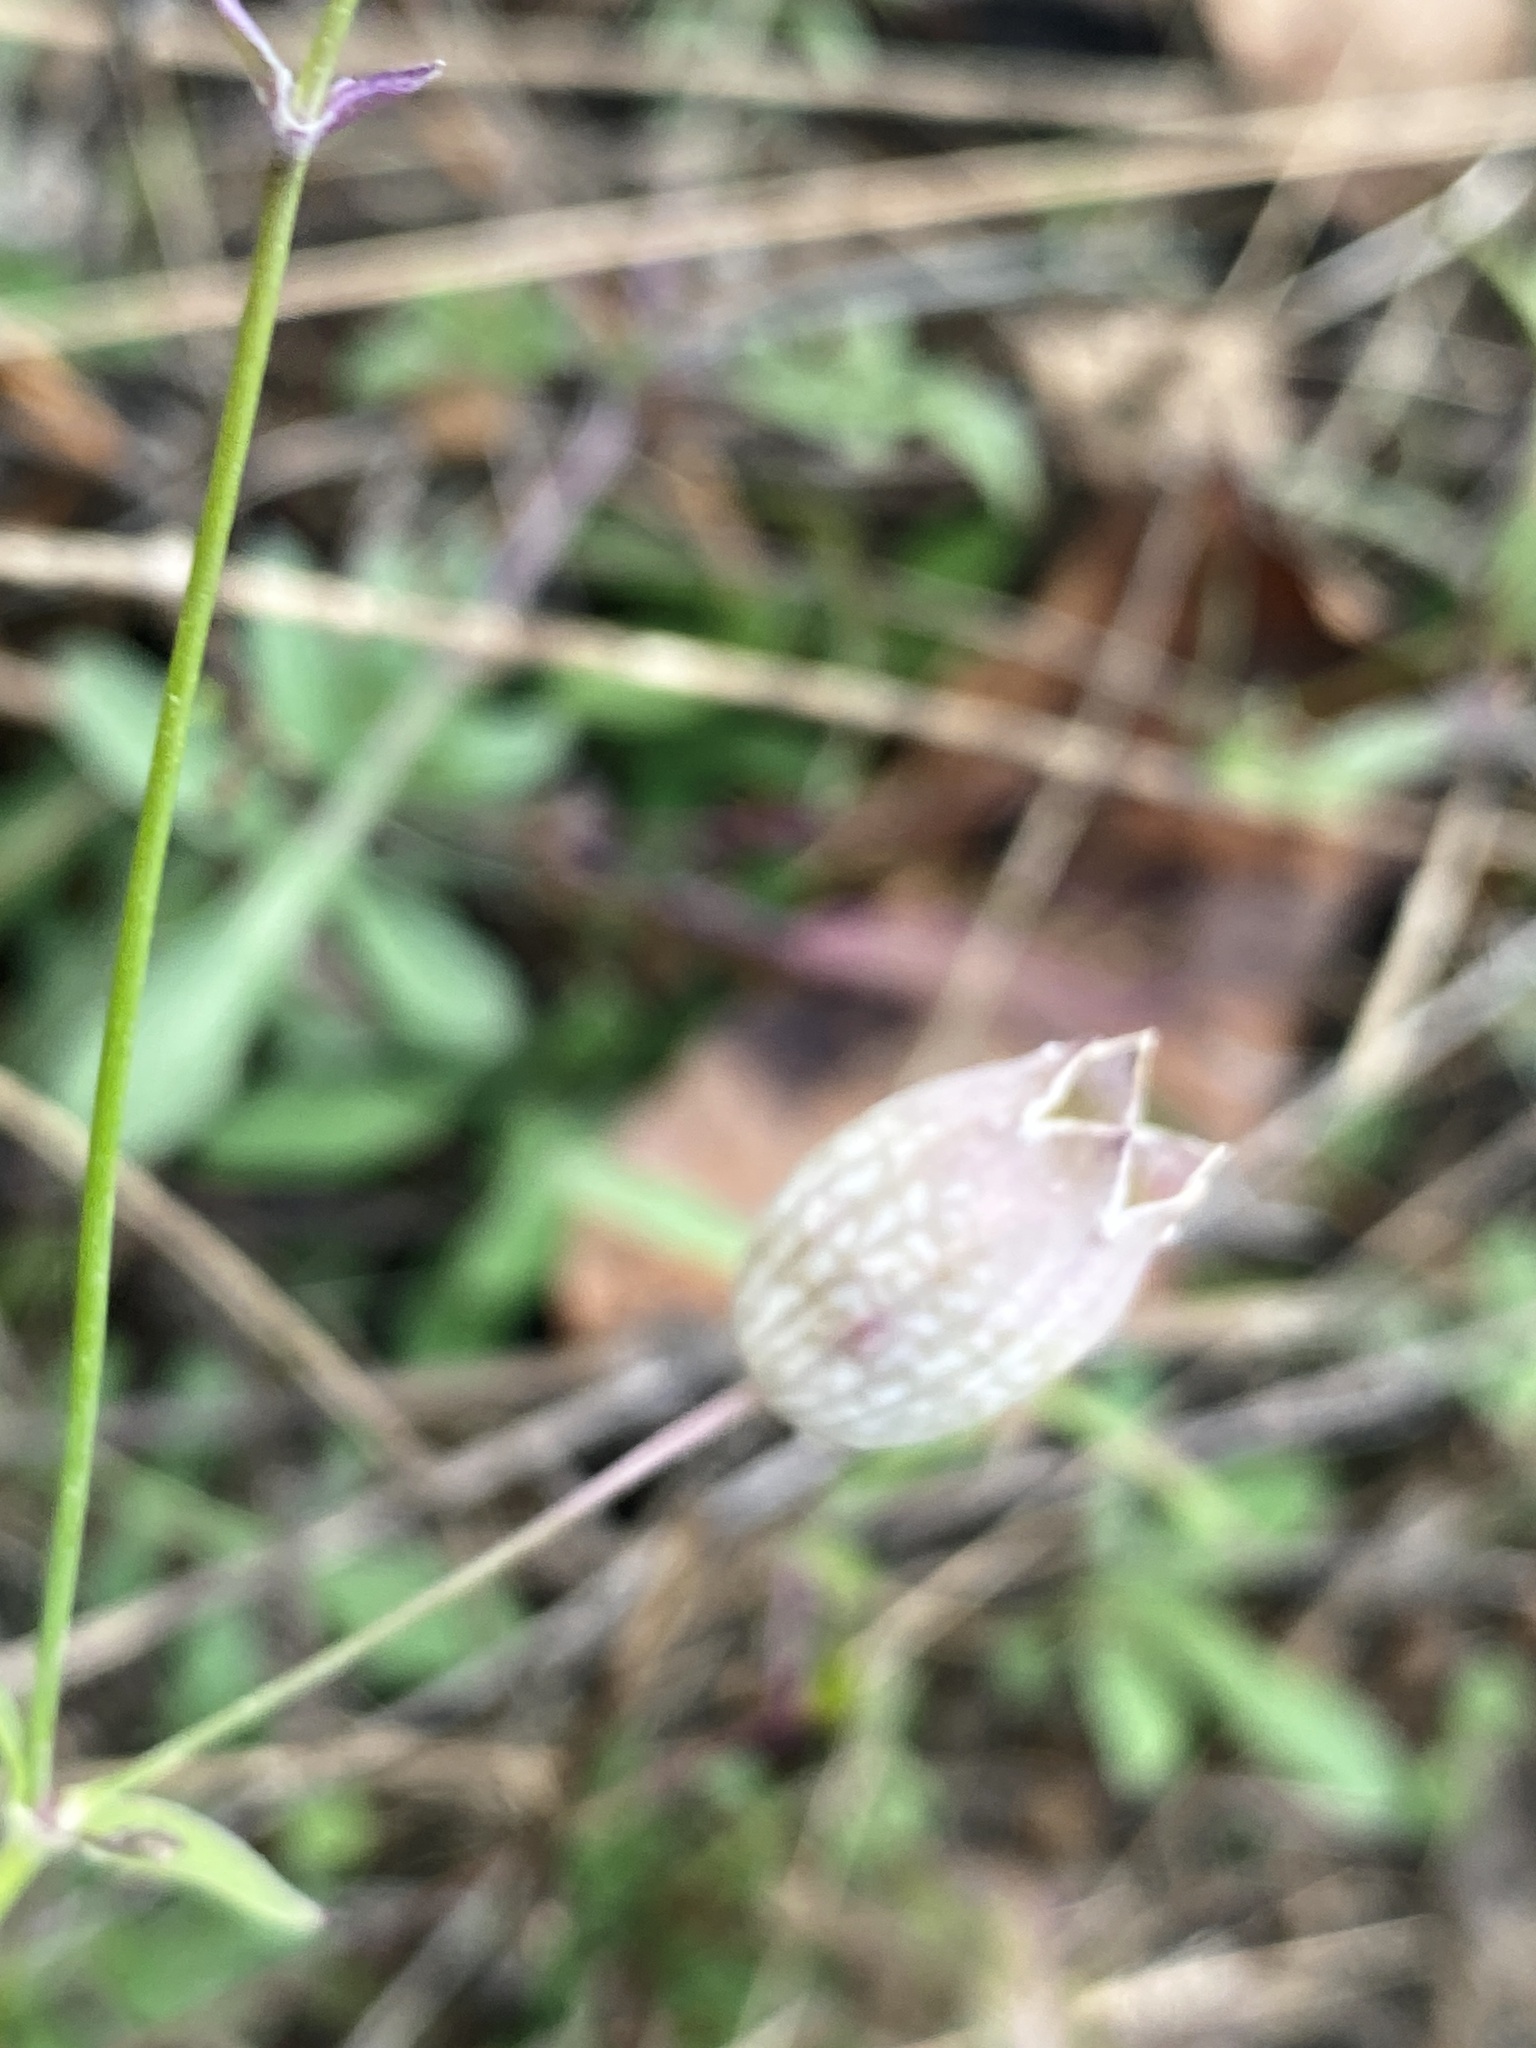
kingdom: Plantae
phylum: Tracheophyta
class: Magnoliopsida
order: Caryophyllales
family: Caryophyllaceae
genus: Silene
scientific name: Silene vulgaris
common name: Bladder campion
